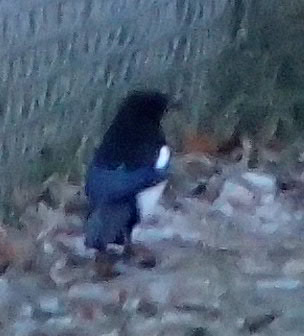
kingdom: Animalia
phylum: Chordata
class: Aves
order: Passeriformes
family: Corvidae
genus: Pica
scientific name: Pica hudsonia
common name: Black-billed magpie
